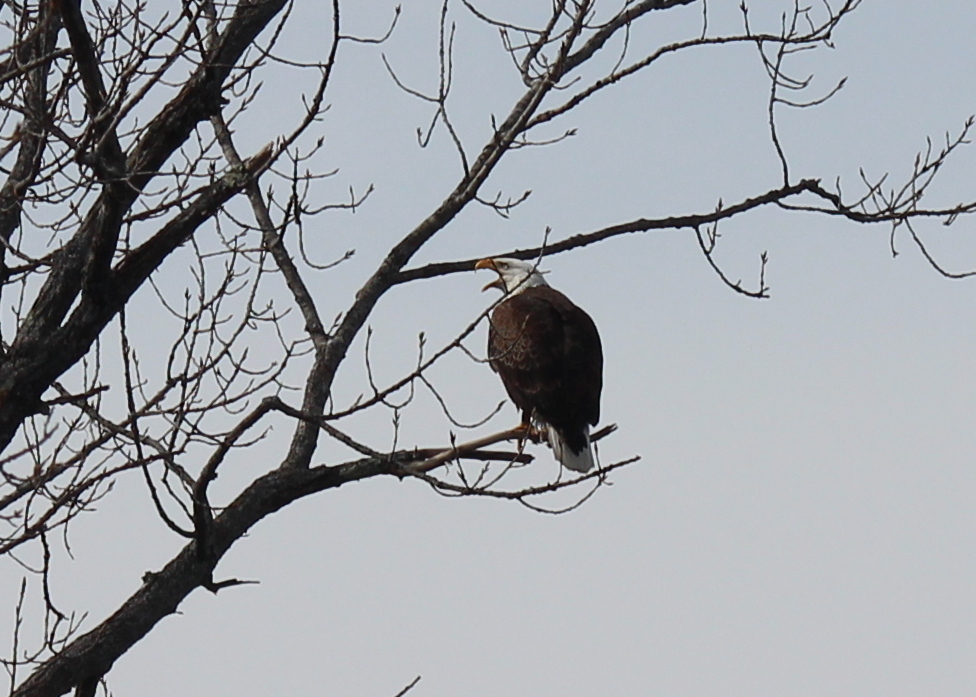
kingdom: Animalia
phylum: Chordata
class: Aves
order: Accipitriformes
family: Accipitridae
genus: Haliaeetus
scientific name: Haliaeetus leucocephalus
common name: Bald eagle
